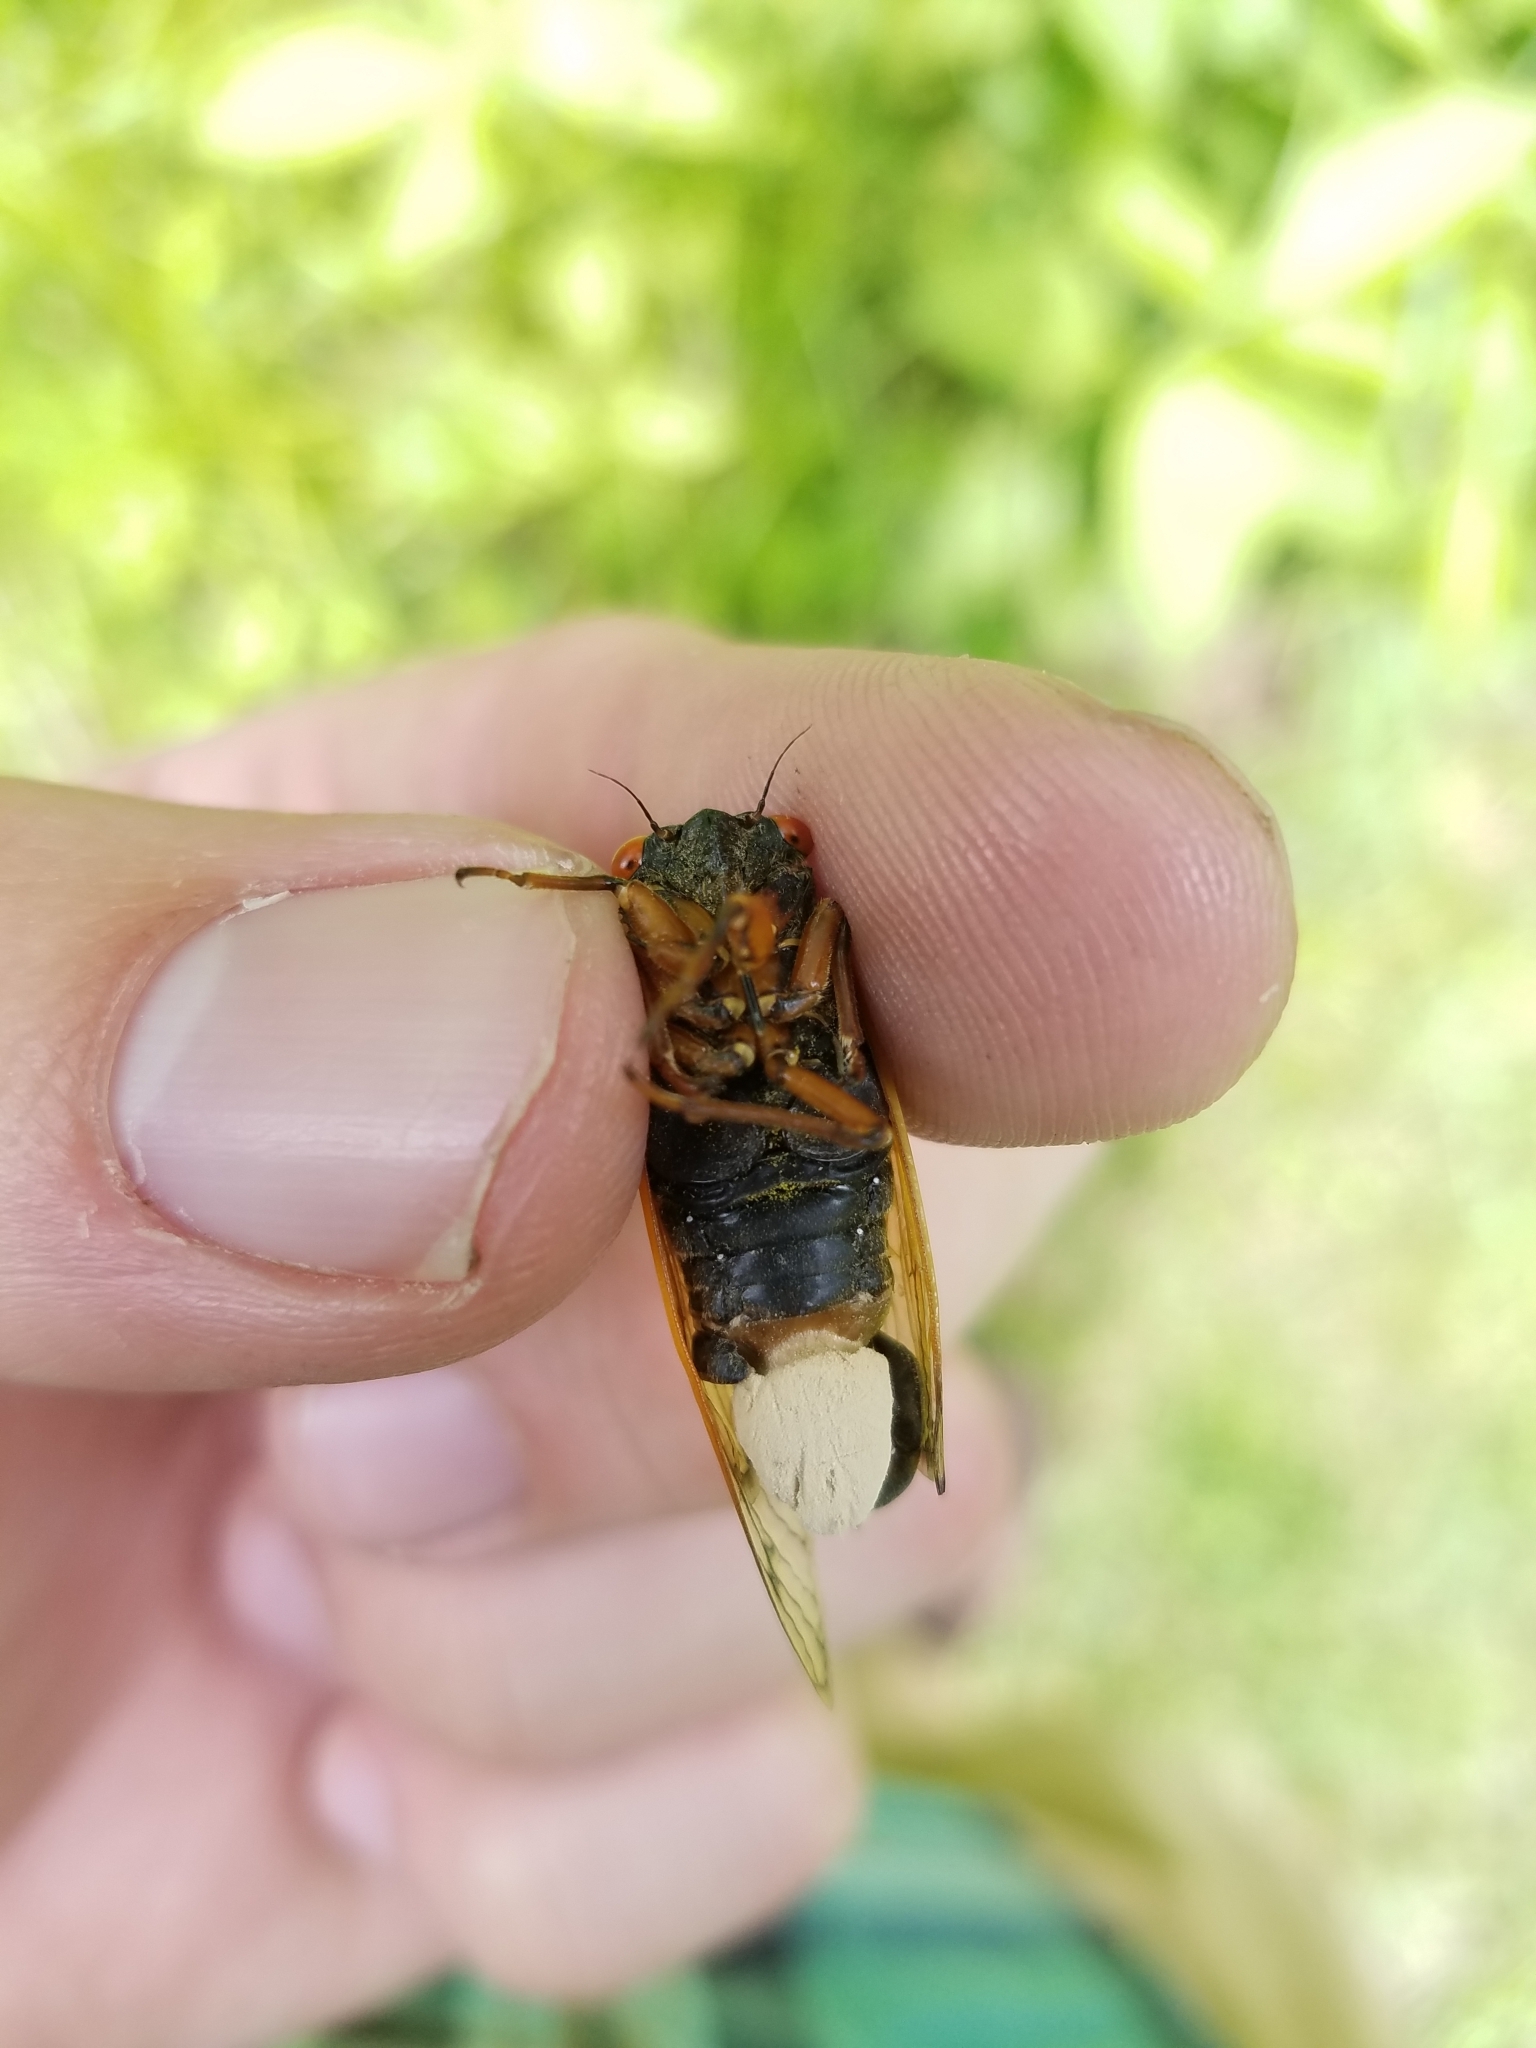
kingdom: Fungi
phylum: Entomophthoromycota
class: Entomophthoromycetes
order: Entomophthorales
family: Entomophthoraceae
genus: Massospora
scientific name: Massospora cicadina
